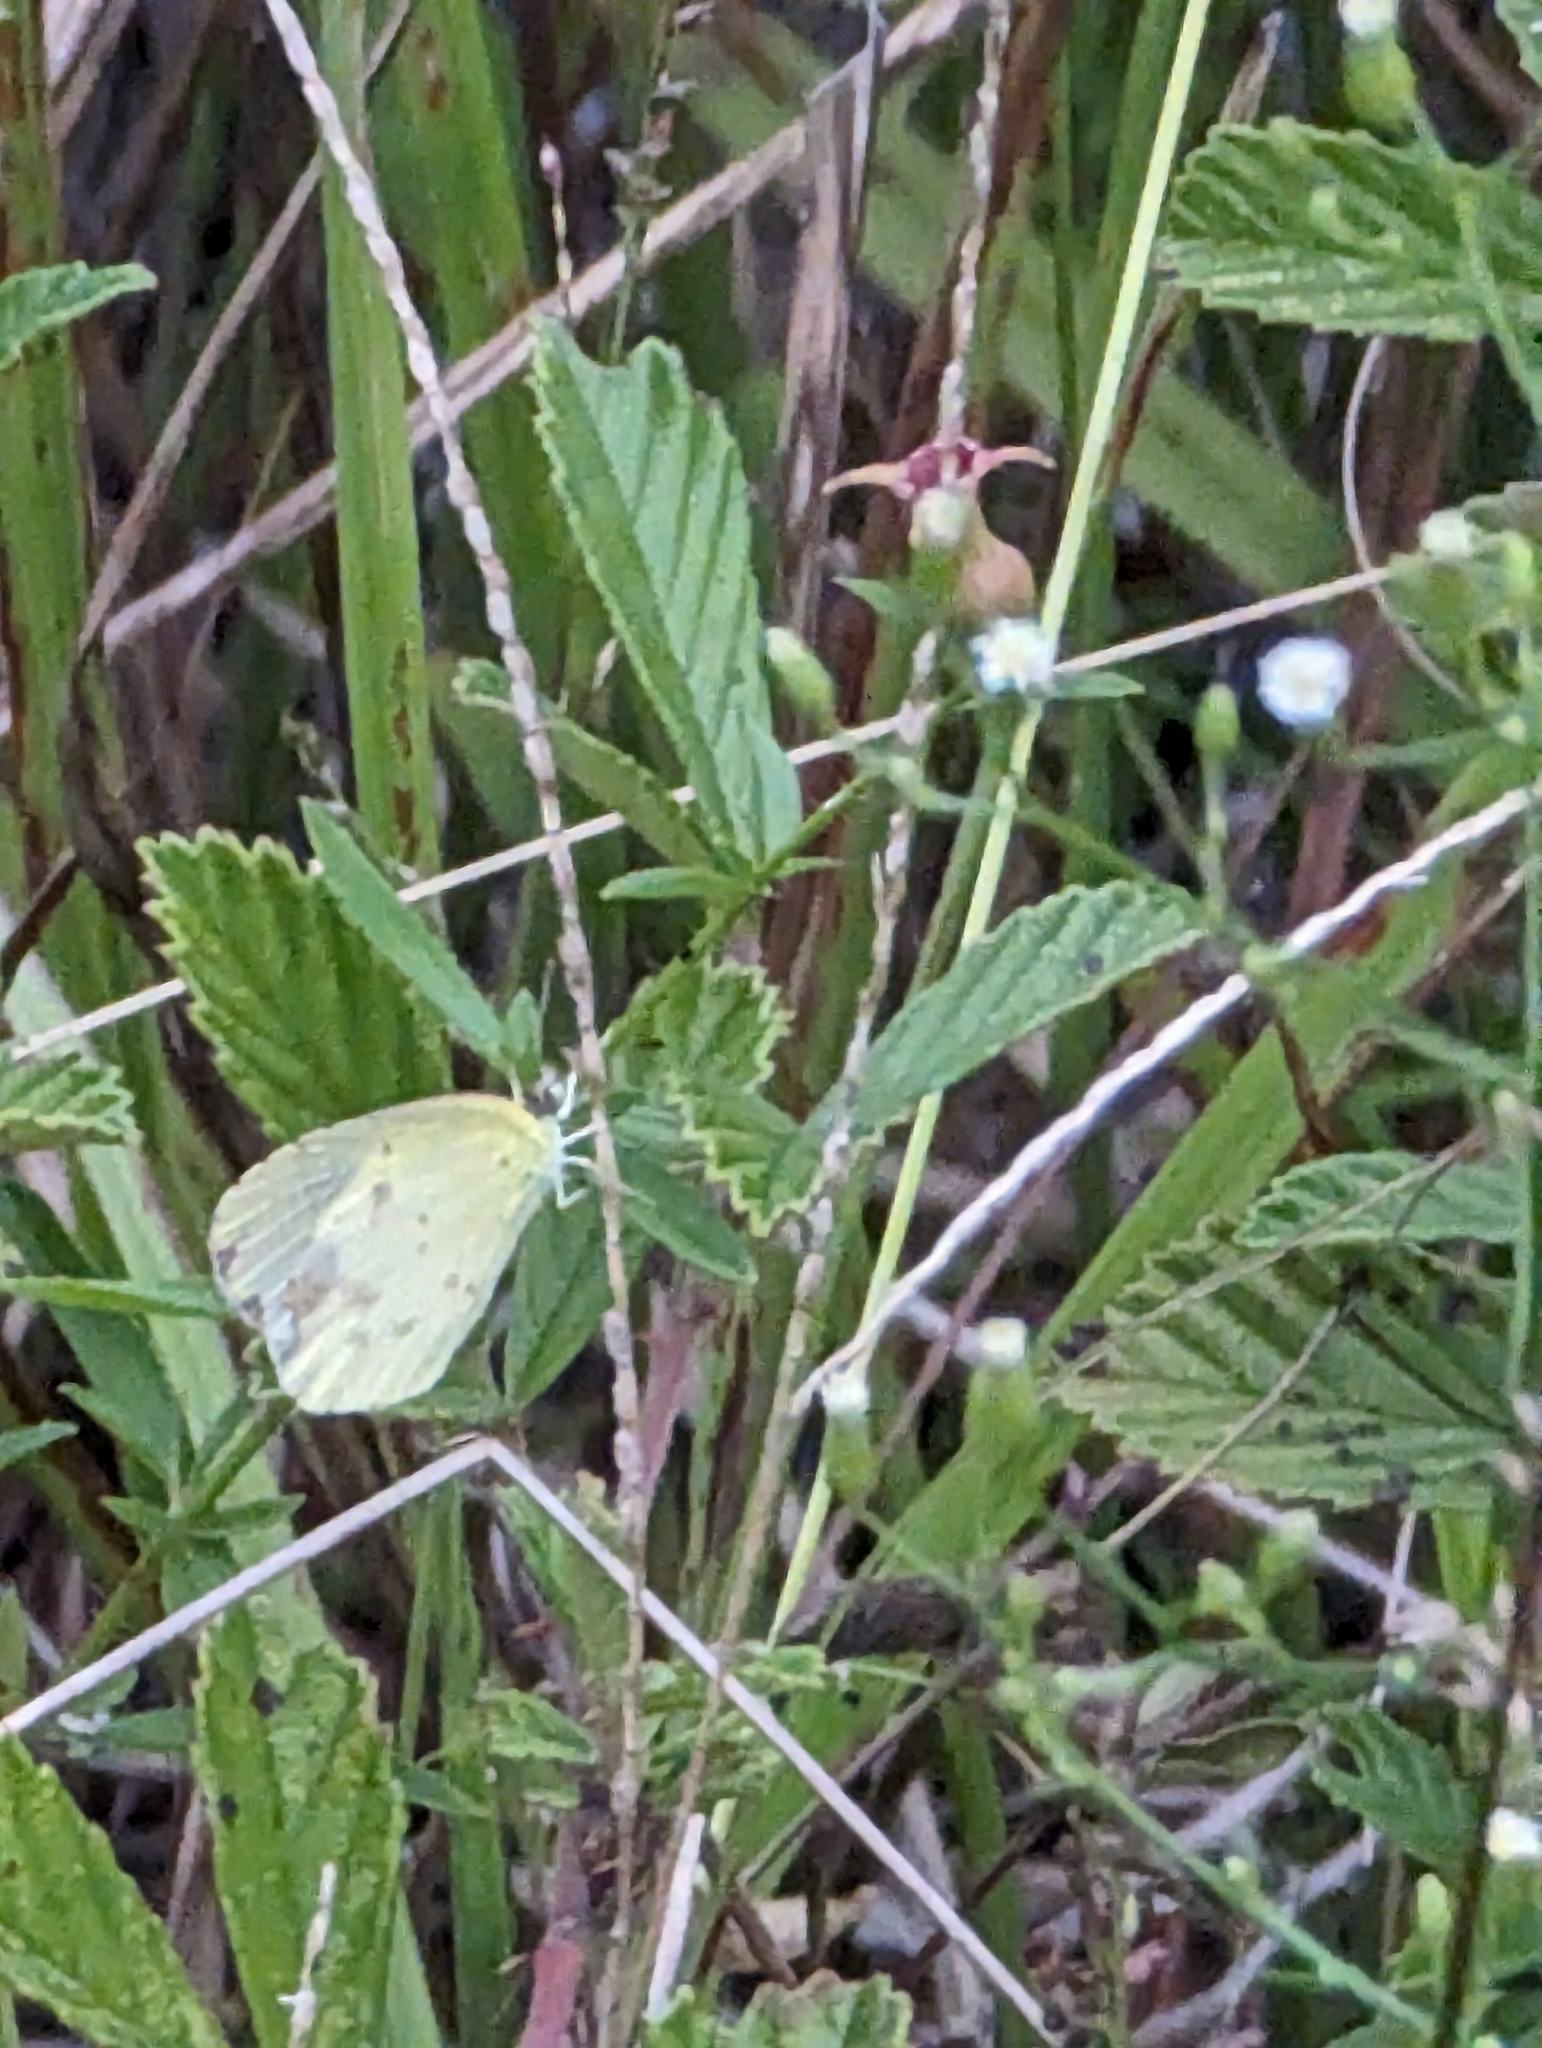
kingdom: Animalia
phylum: Arthropoda
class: Insecta
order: Lepidoptera
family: Pieridae
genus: Pyrisitia
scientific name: Pyrisitia lisa
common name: Little yellow
